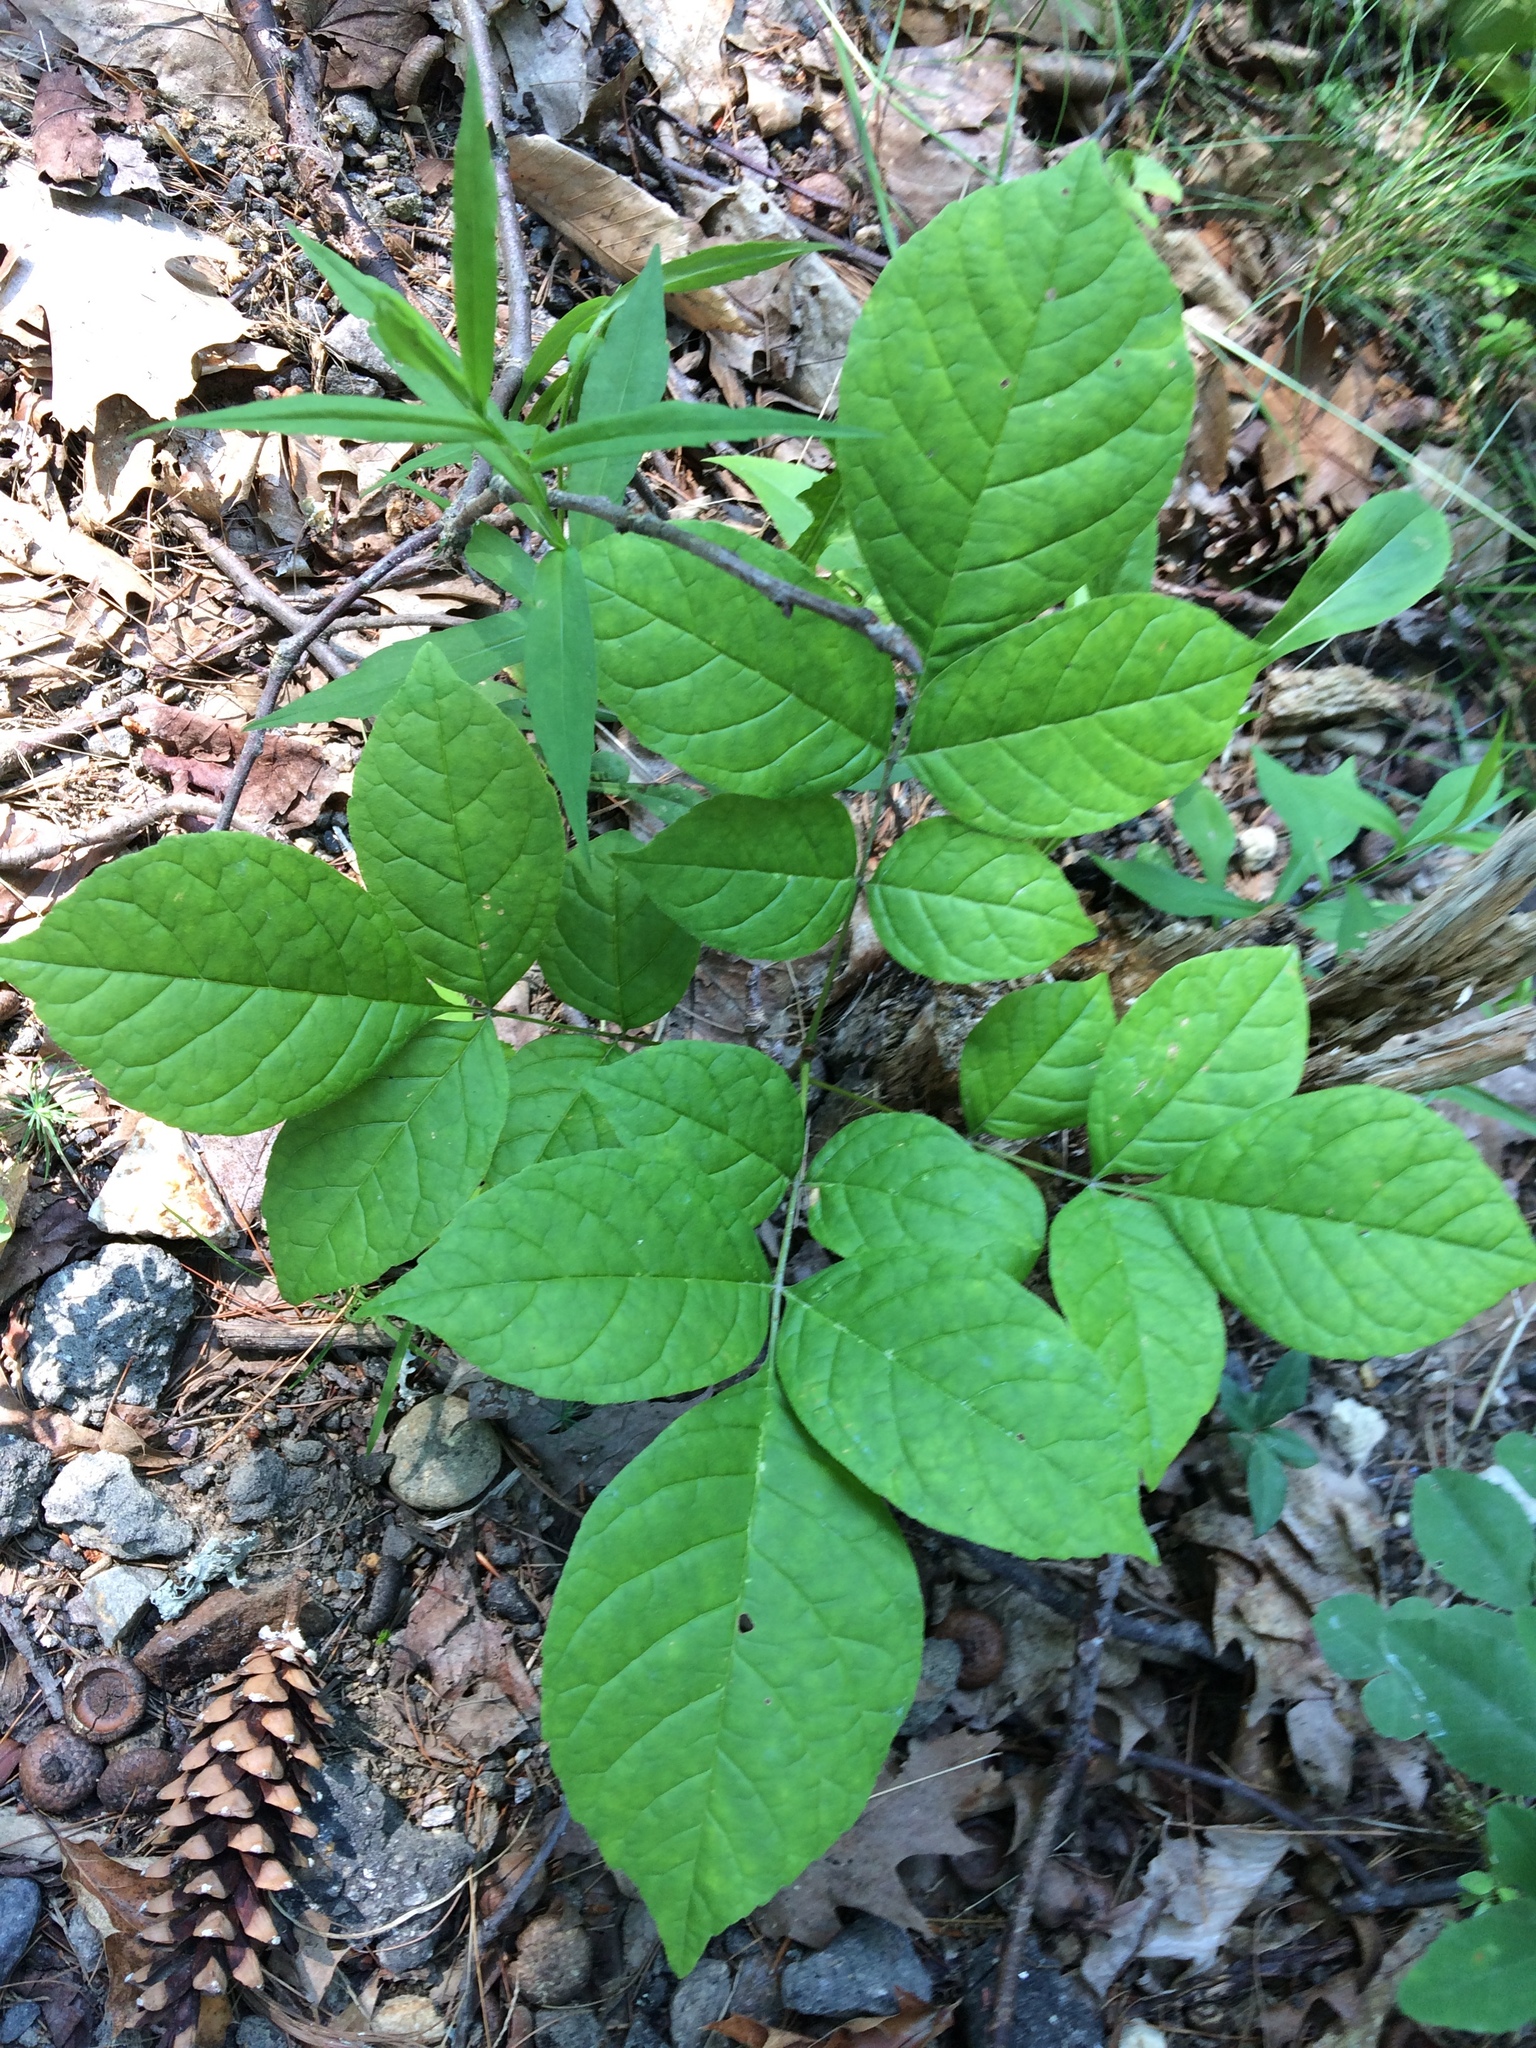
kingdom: Plantae
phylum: Tracheophyta
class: Magnoliopsida
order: Lamiales
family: Oleaceae
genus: Fraxinus
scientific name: Fraxinus americana
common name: White ash
